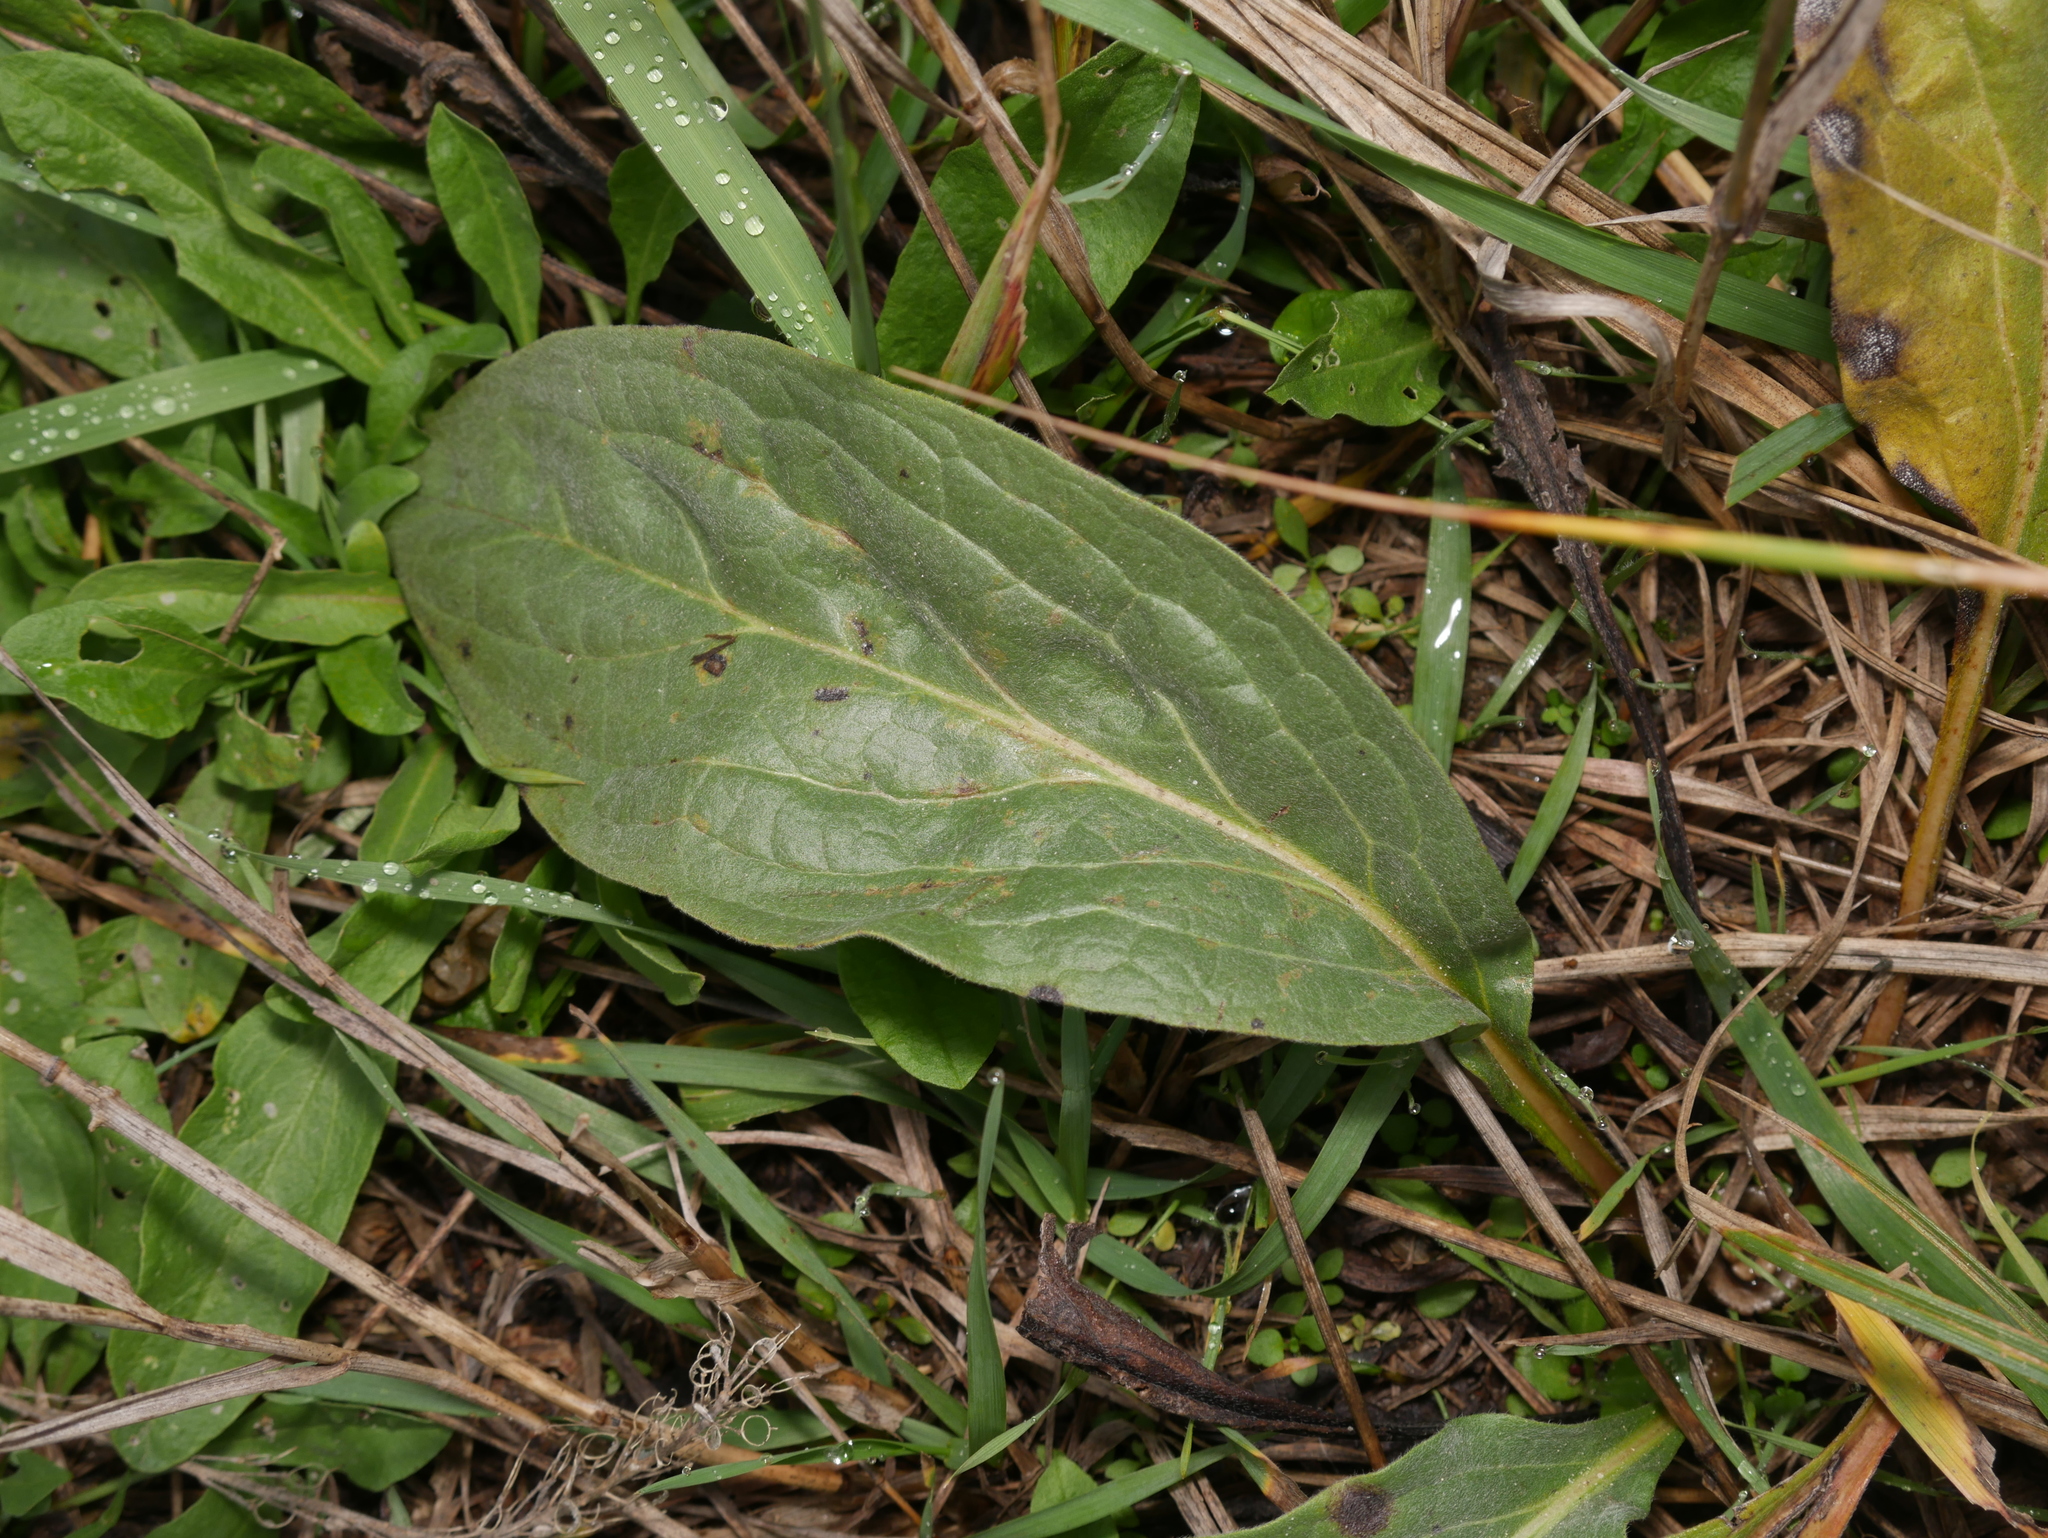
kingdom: Plantae
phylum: Tracheophyta
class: Magnoliopsida
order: Boraginales
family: Boraginaceae
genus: Cynoglossum
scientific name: Cynoglossum officinale
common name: Hound's-tongue
